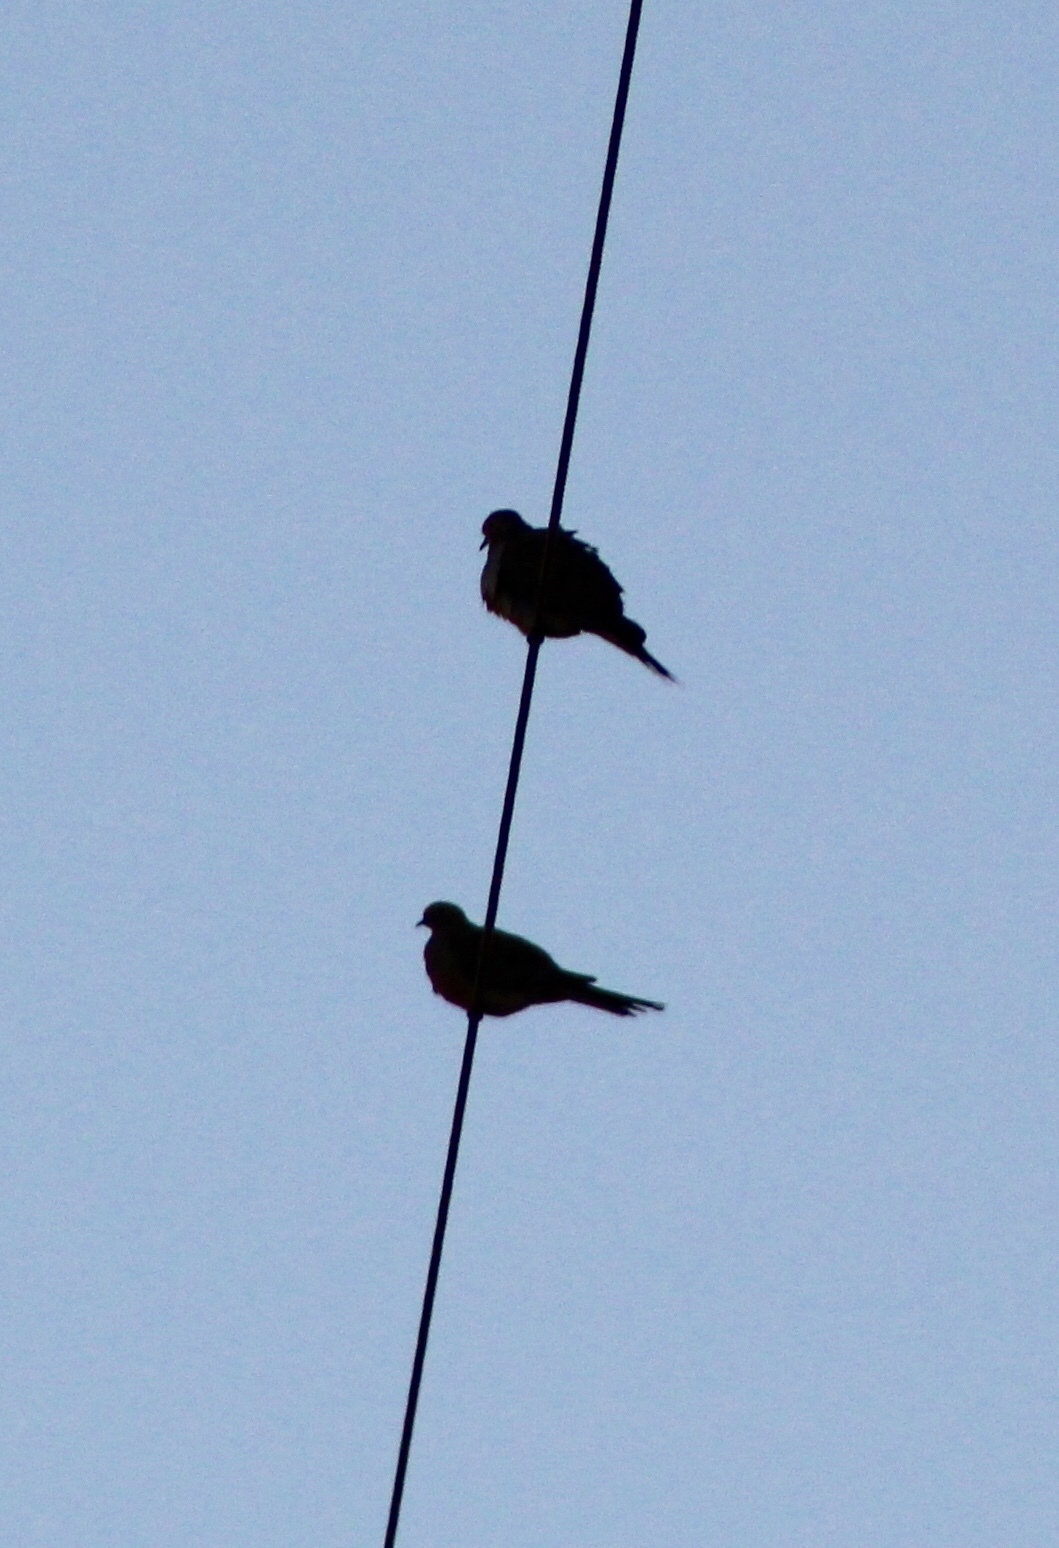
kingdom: Animalia
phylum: Chordata
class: Aves
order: Columbiformes
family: Columbidae
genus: Zenaida
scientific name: Zenaida macroura
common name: Mourning dove
